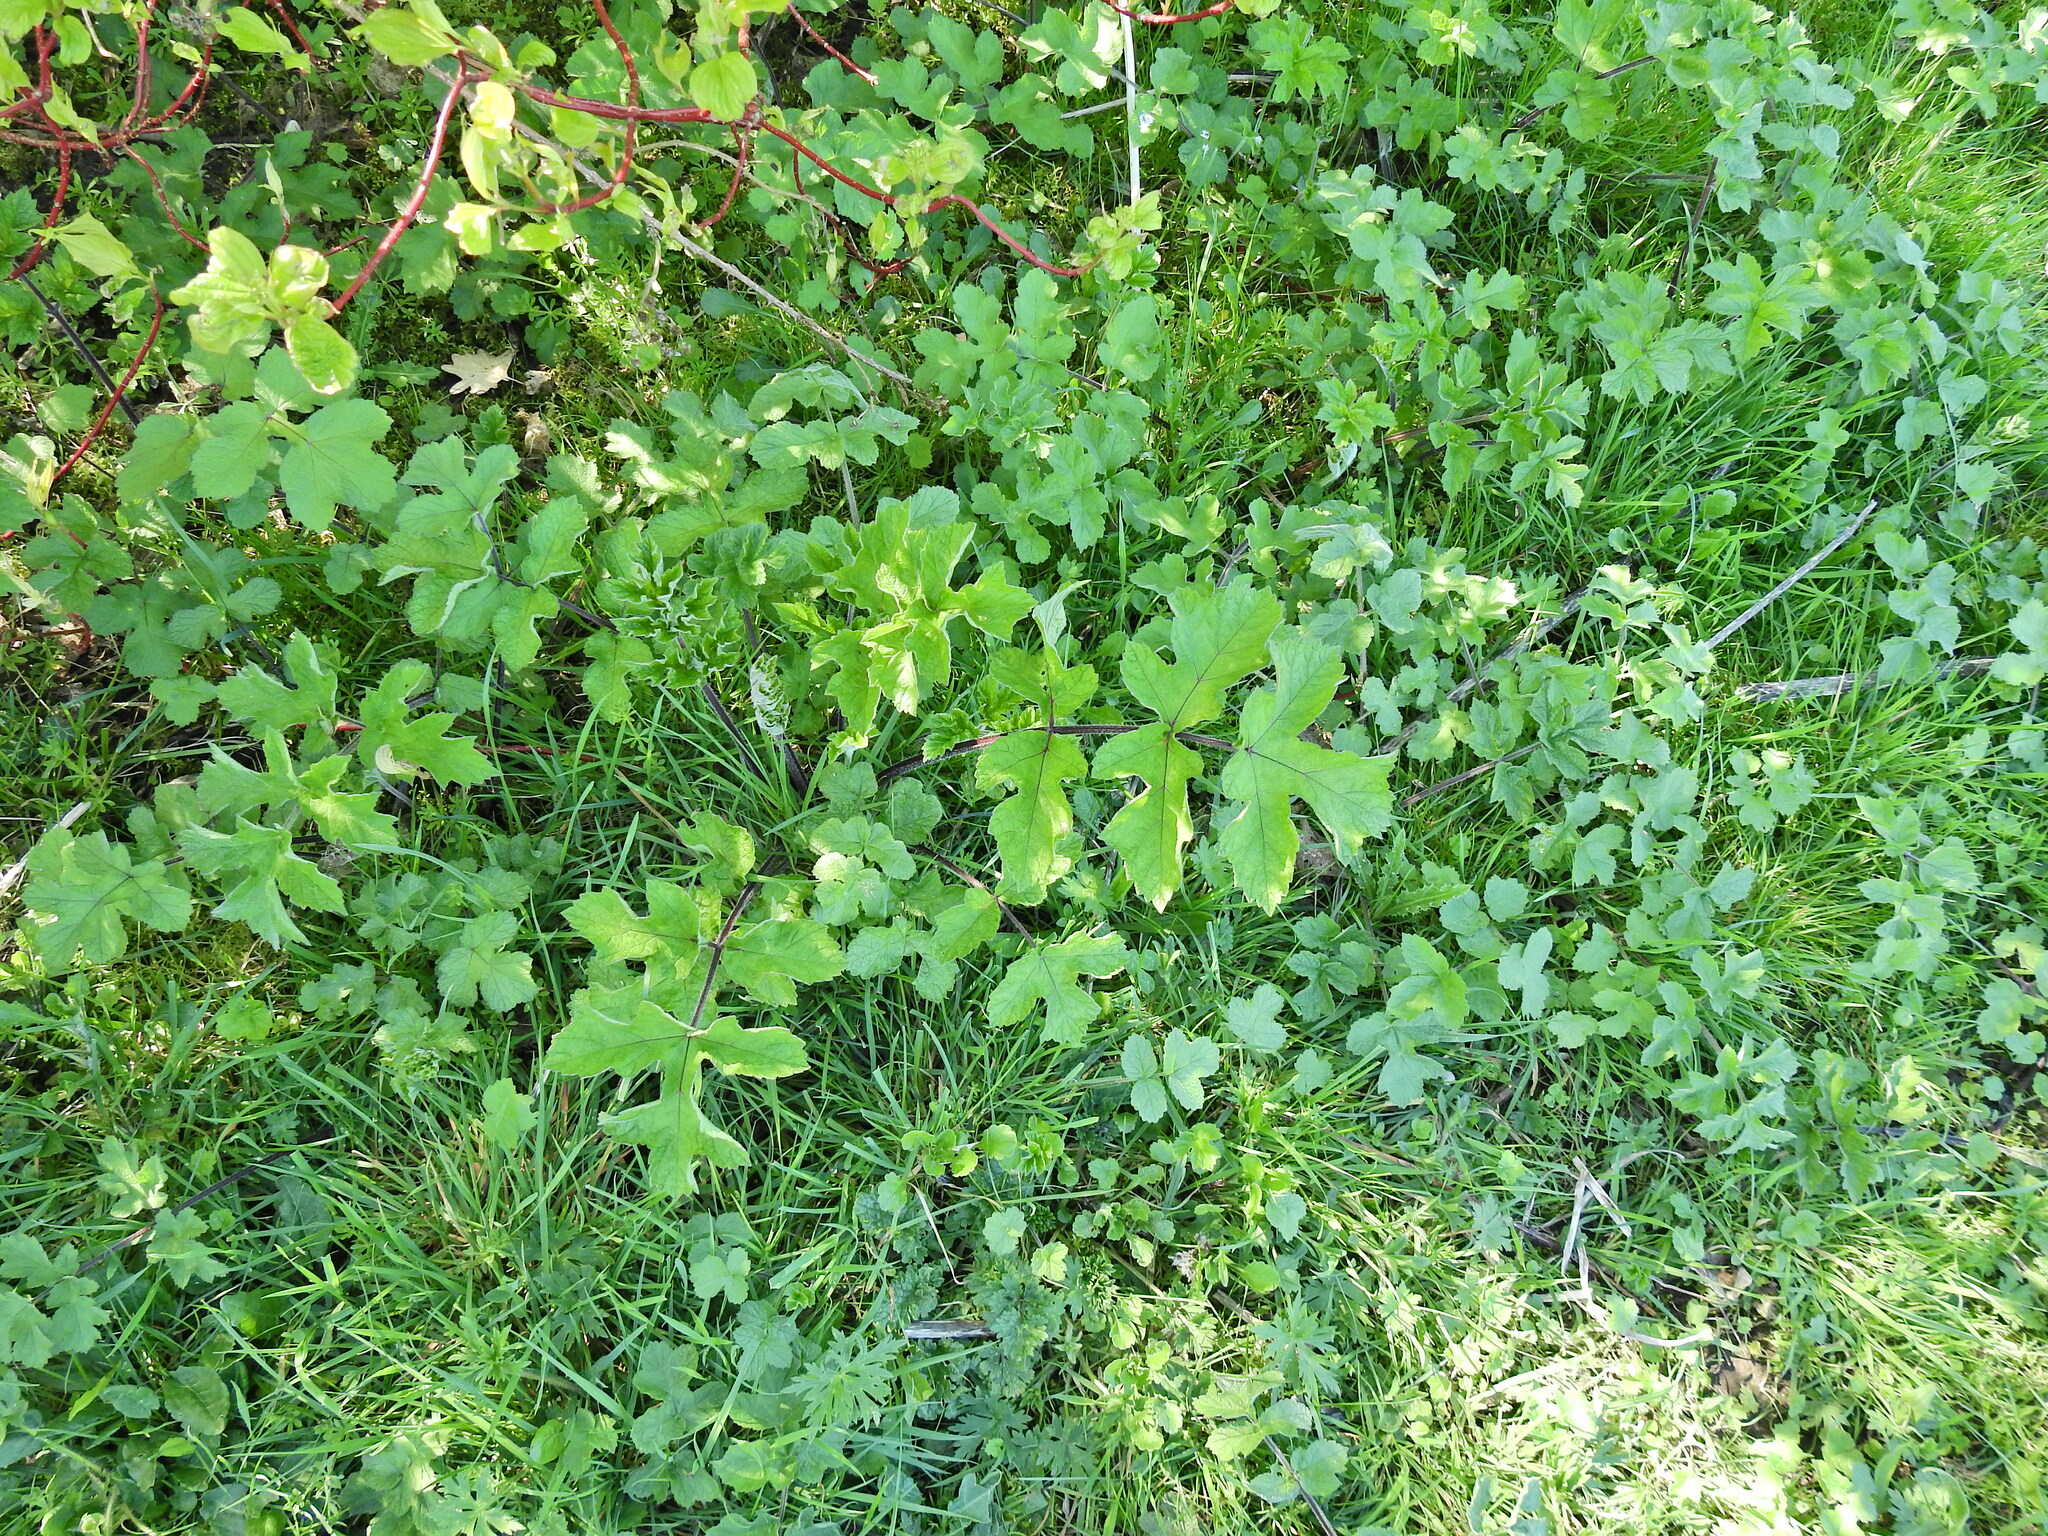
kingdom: Plantae
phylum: Tracheophyta
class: Magnoliopsida
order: Apiales
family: Apiaceae
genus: Heracleum
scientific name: Heracleum sphondylium
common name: Hogweed
